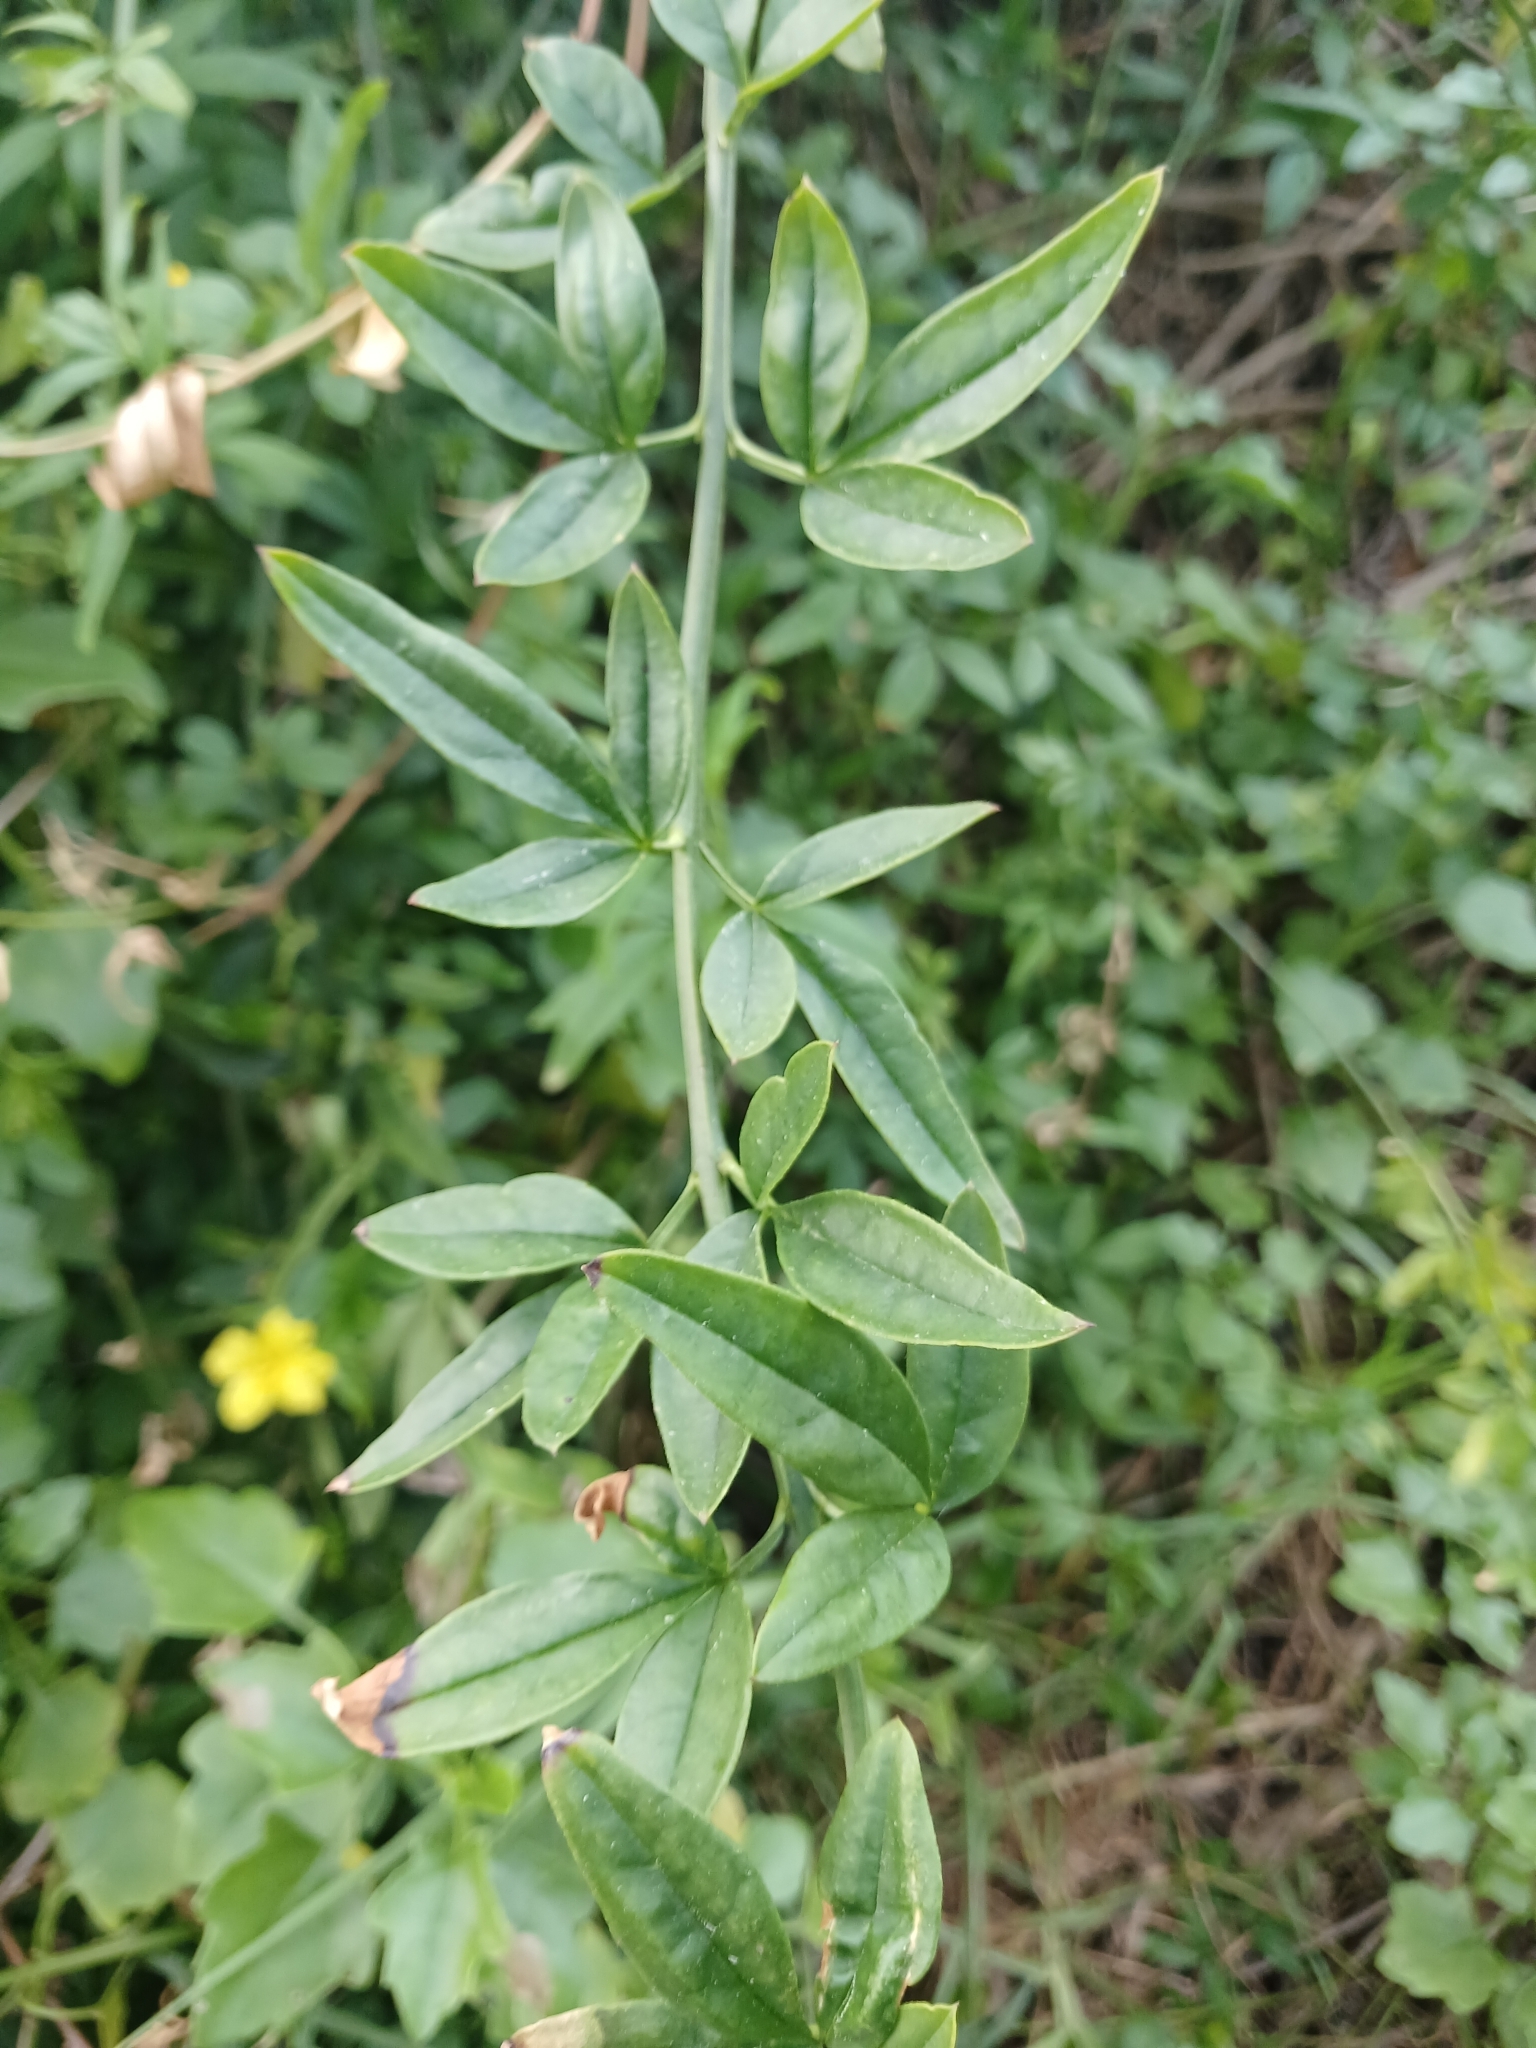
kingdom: Plantae
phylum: Tracheophyta
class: Magnoliopsida
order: Lamiales
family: Oleaceae
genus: Jasminum
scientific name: Jasminum mesnyi
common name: Japanese jasmine
